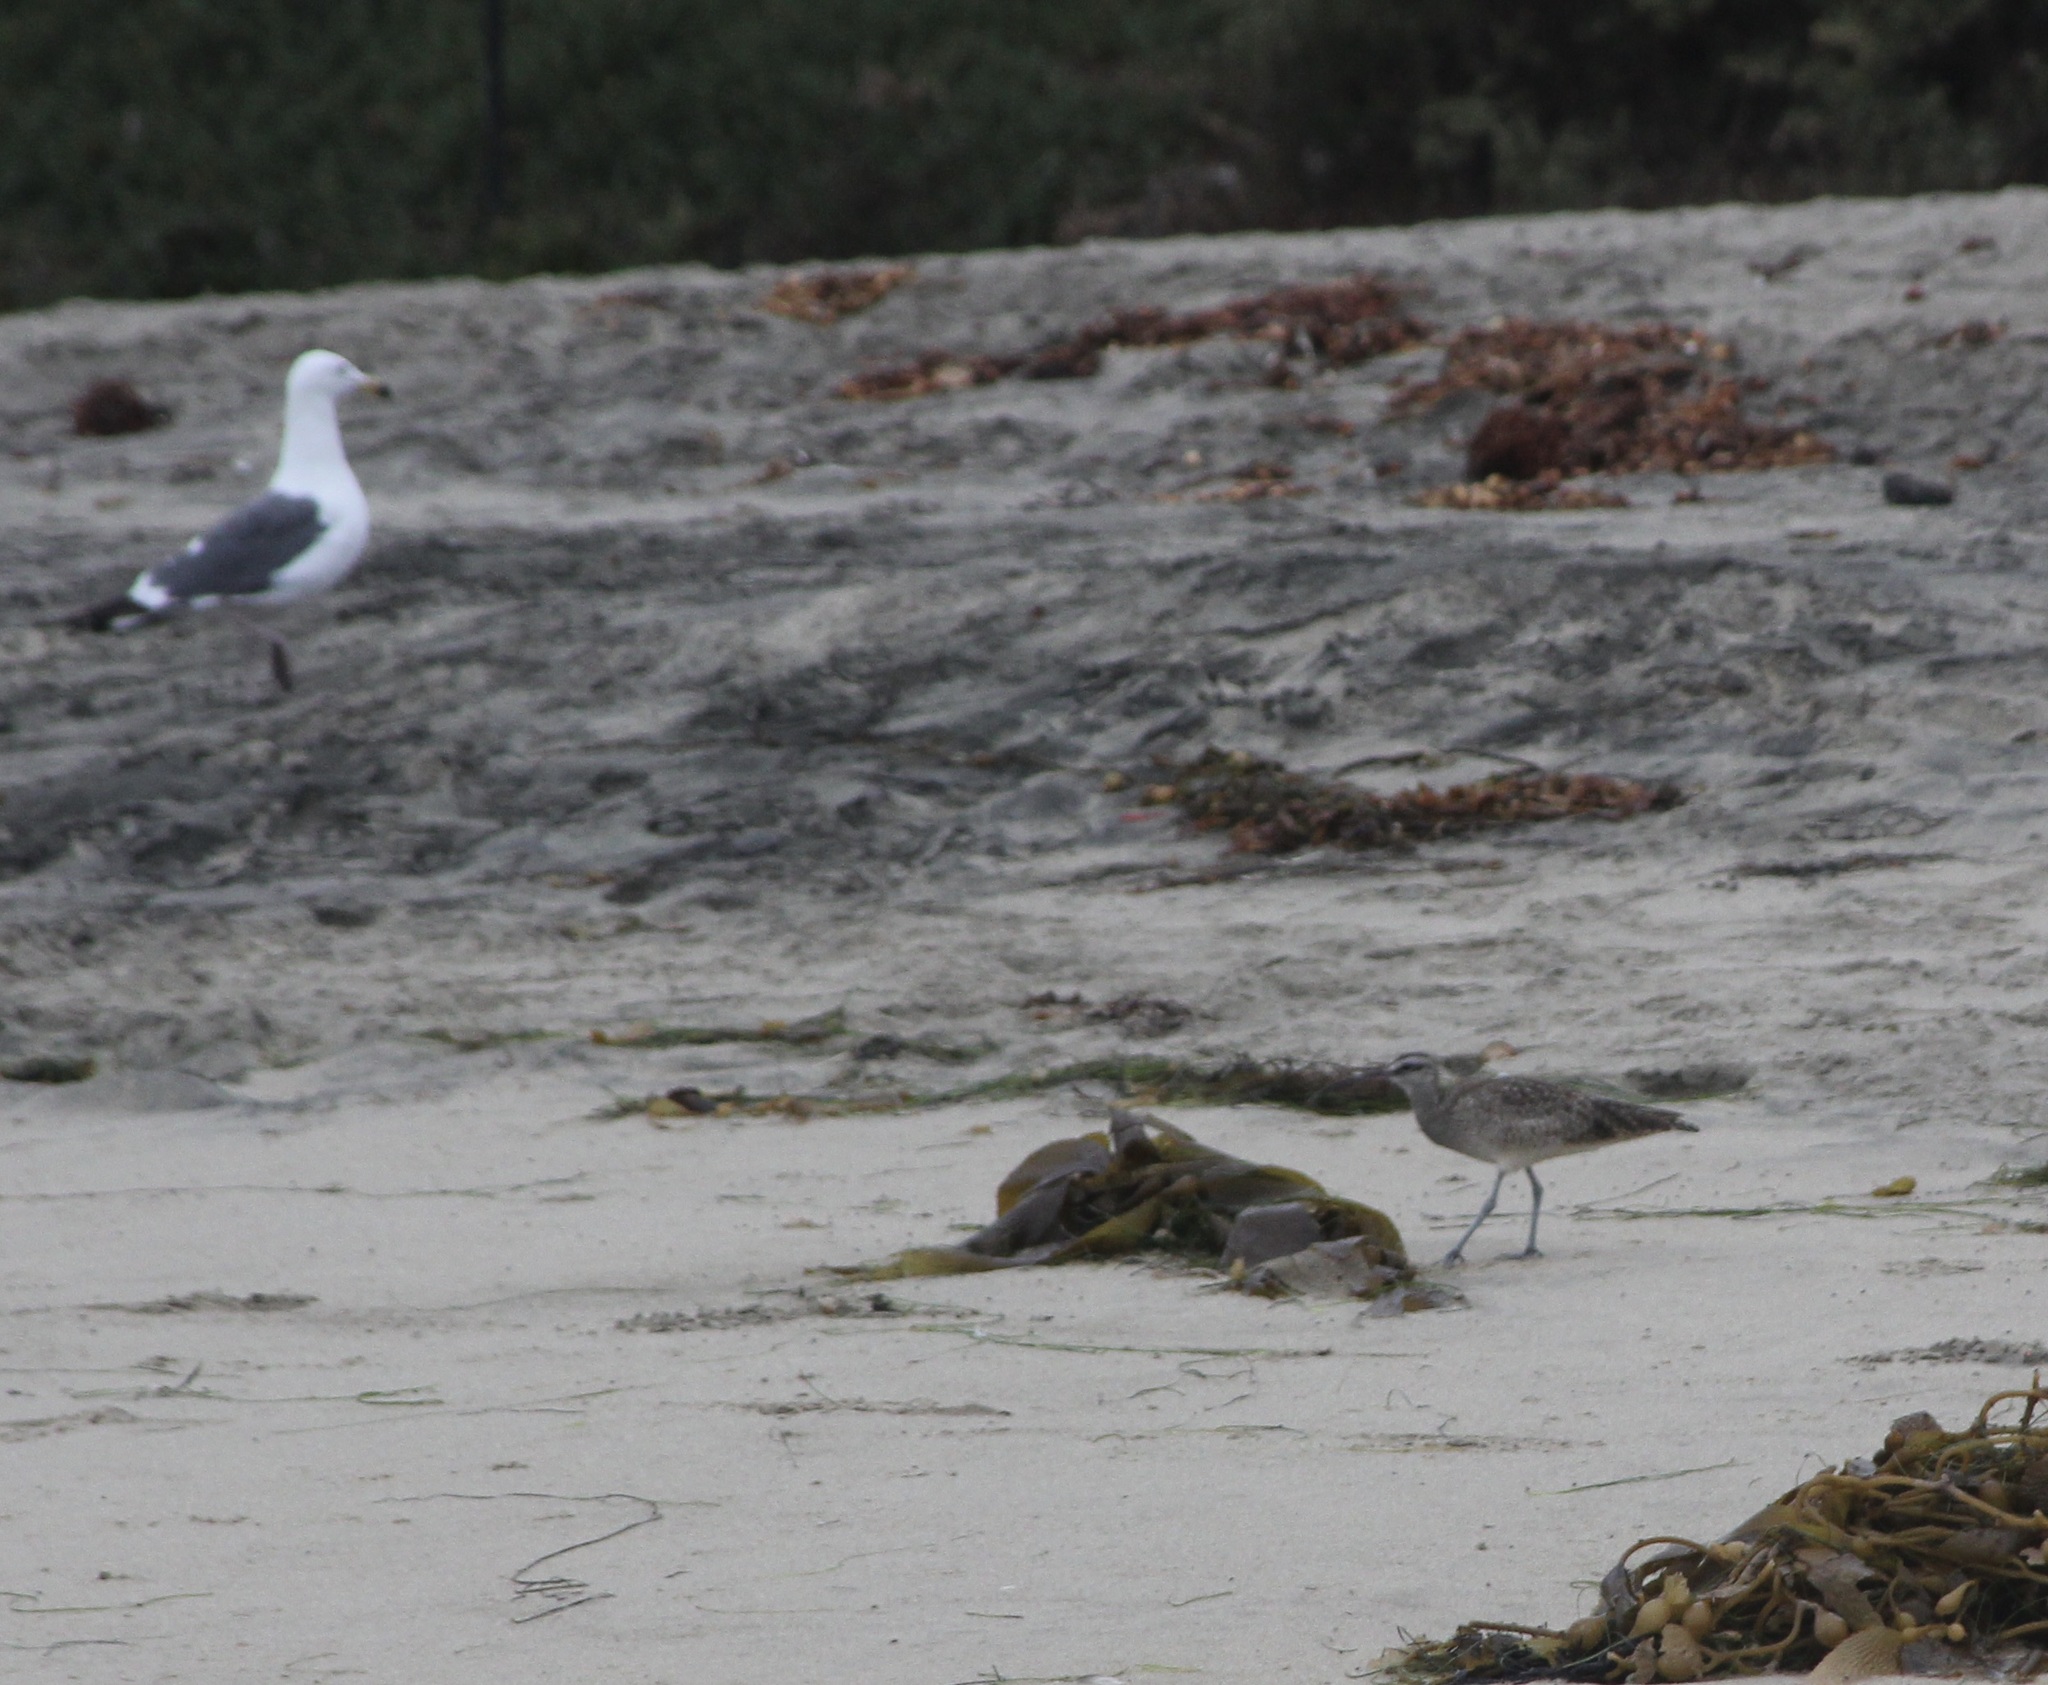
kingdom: Animalia
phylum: Chordata
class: Aves
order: Charadriiformes
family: Scolopacidae
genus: Numenius
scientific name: Numenius phaeopus
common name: Whimbrel
